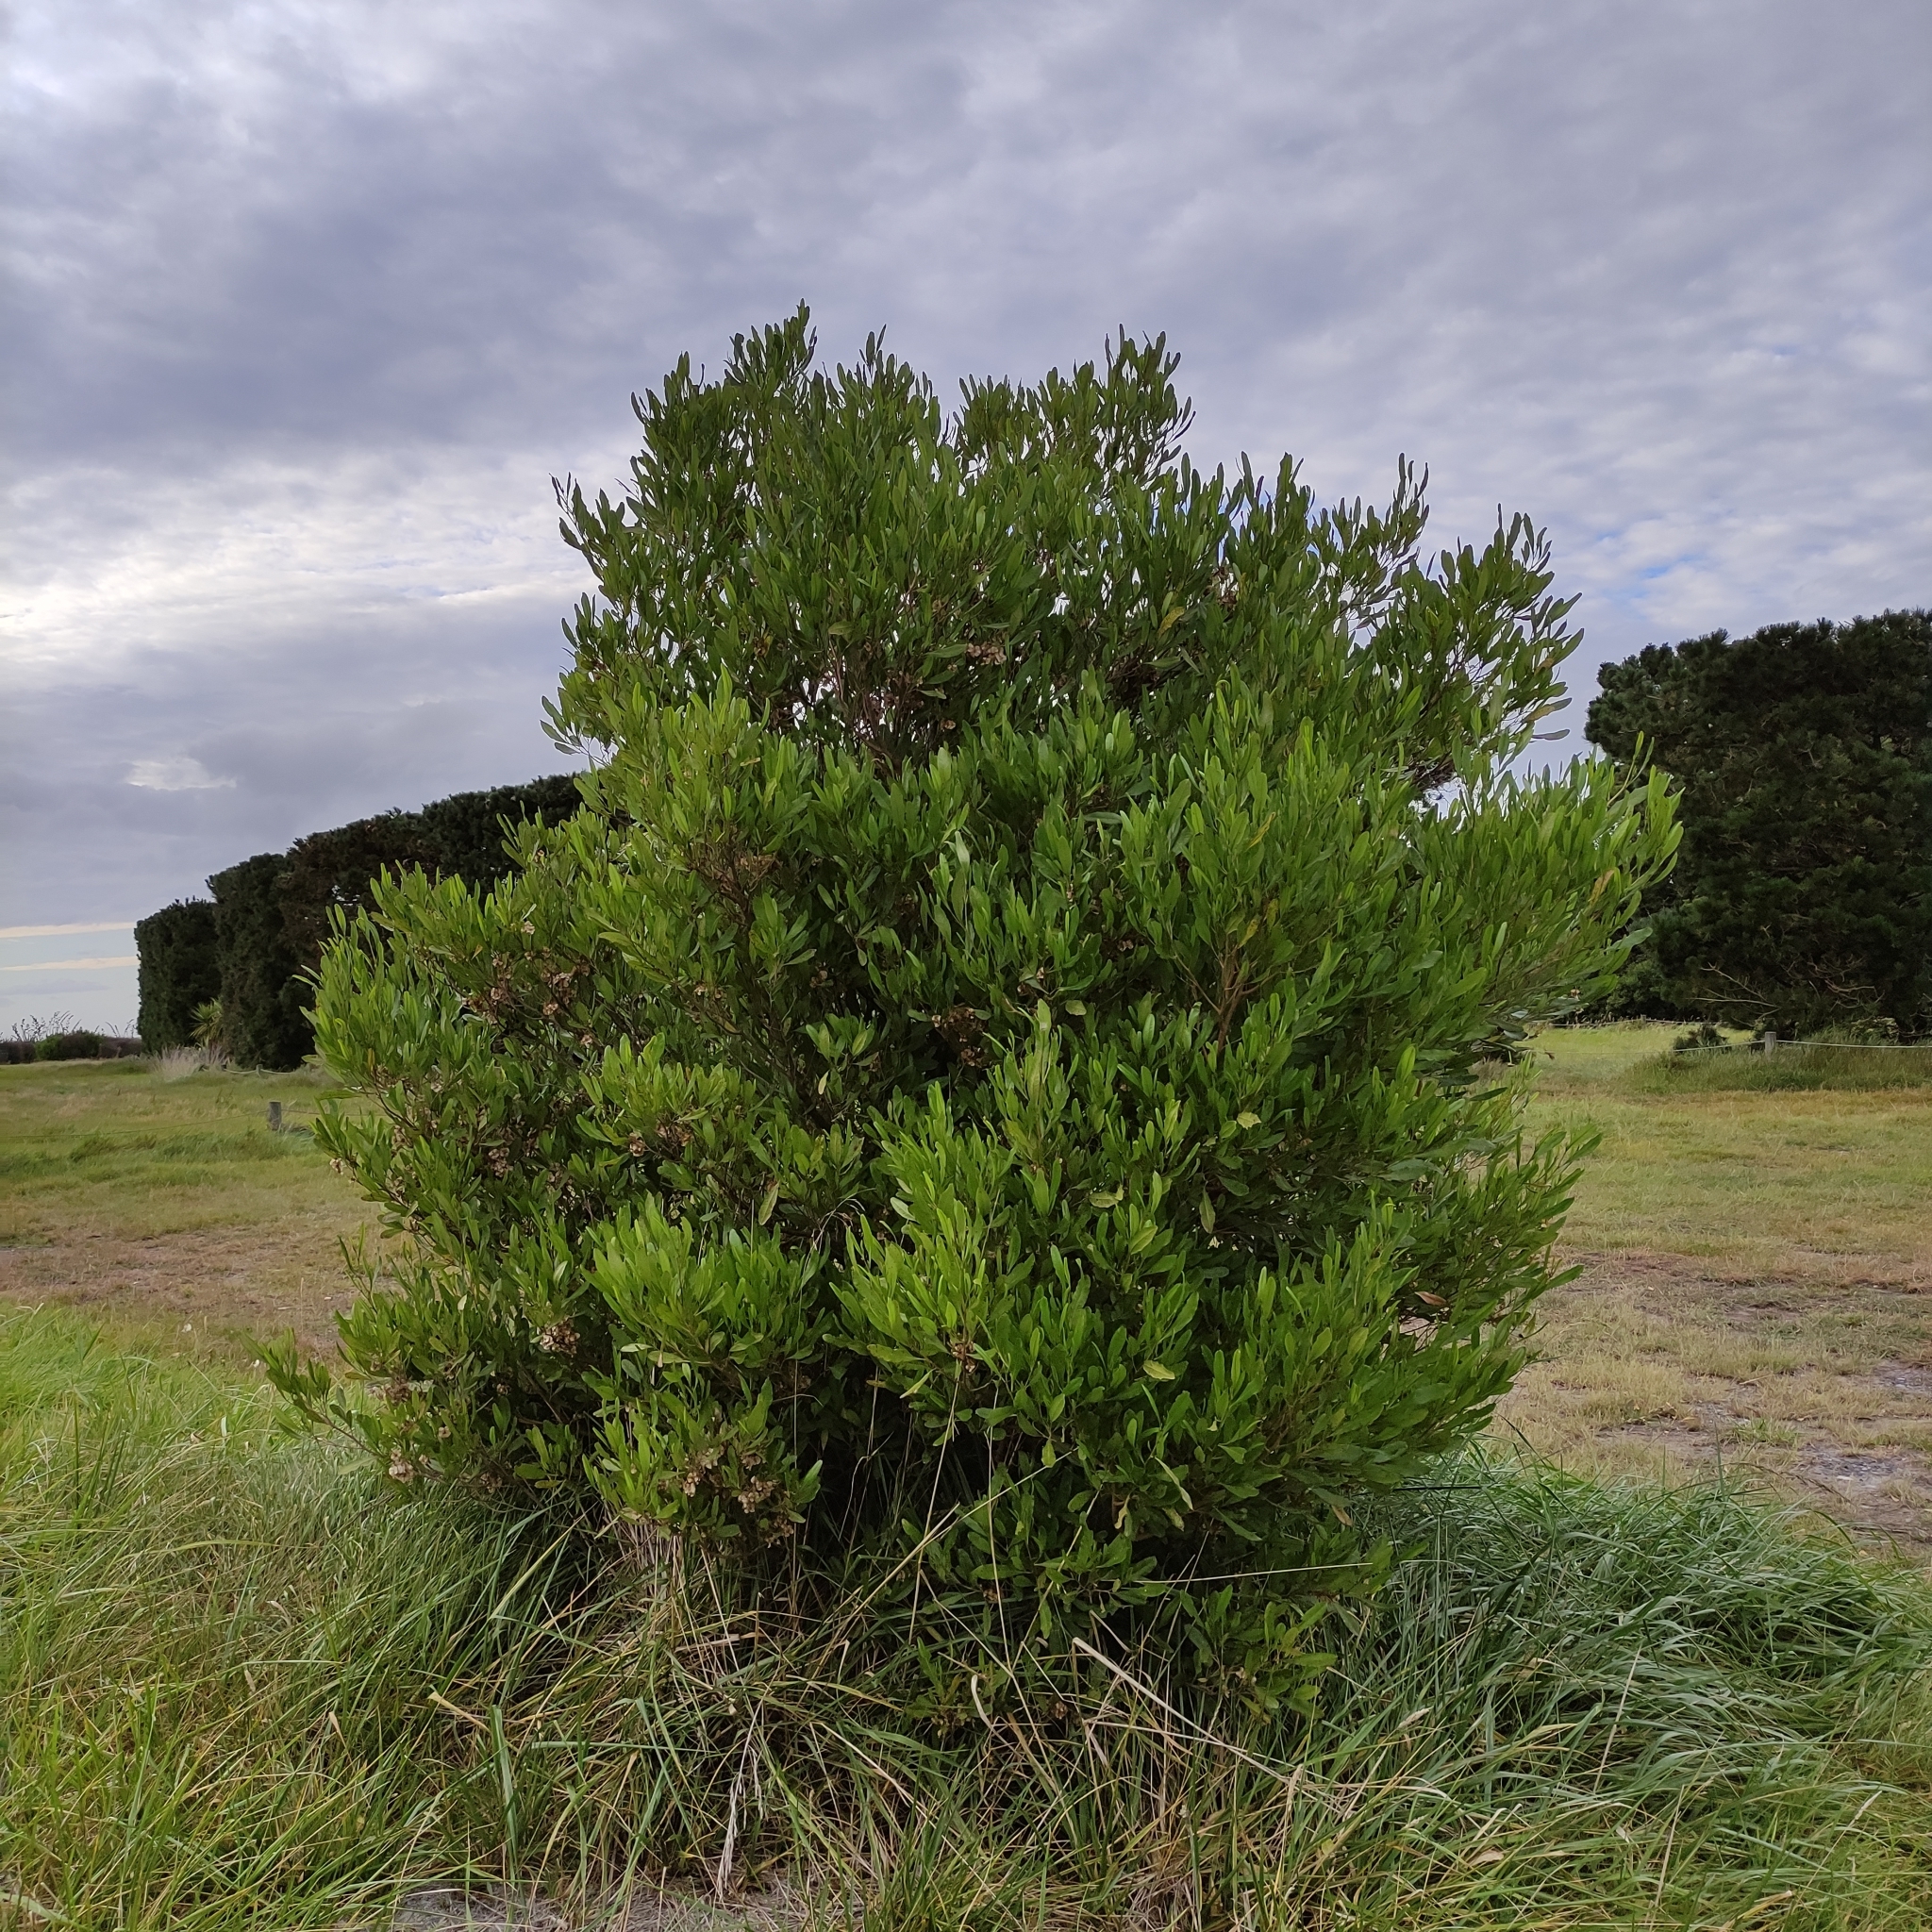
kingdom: Plantae
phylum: Tracheophyta
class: Magnoliopsida
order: Sapindales
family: Sapindaceae
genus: Dodonaea
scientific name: Dodonaea viscosa
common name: Hopbush
